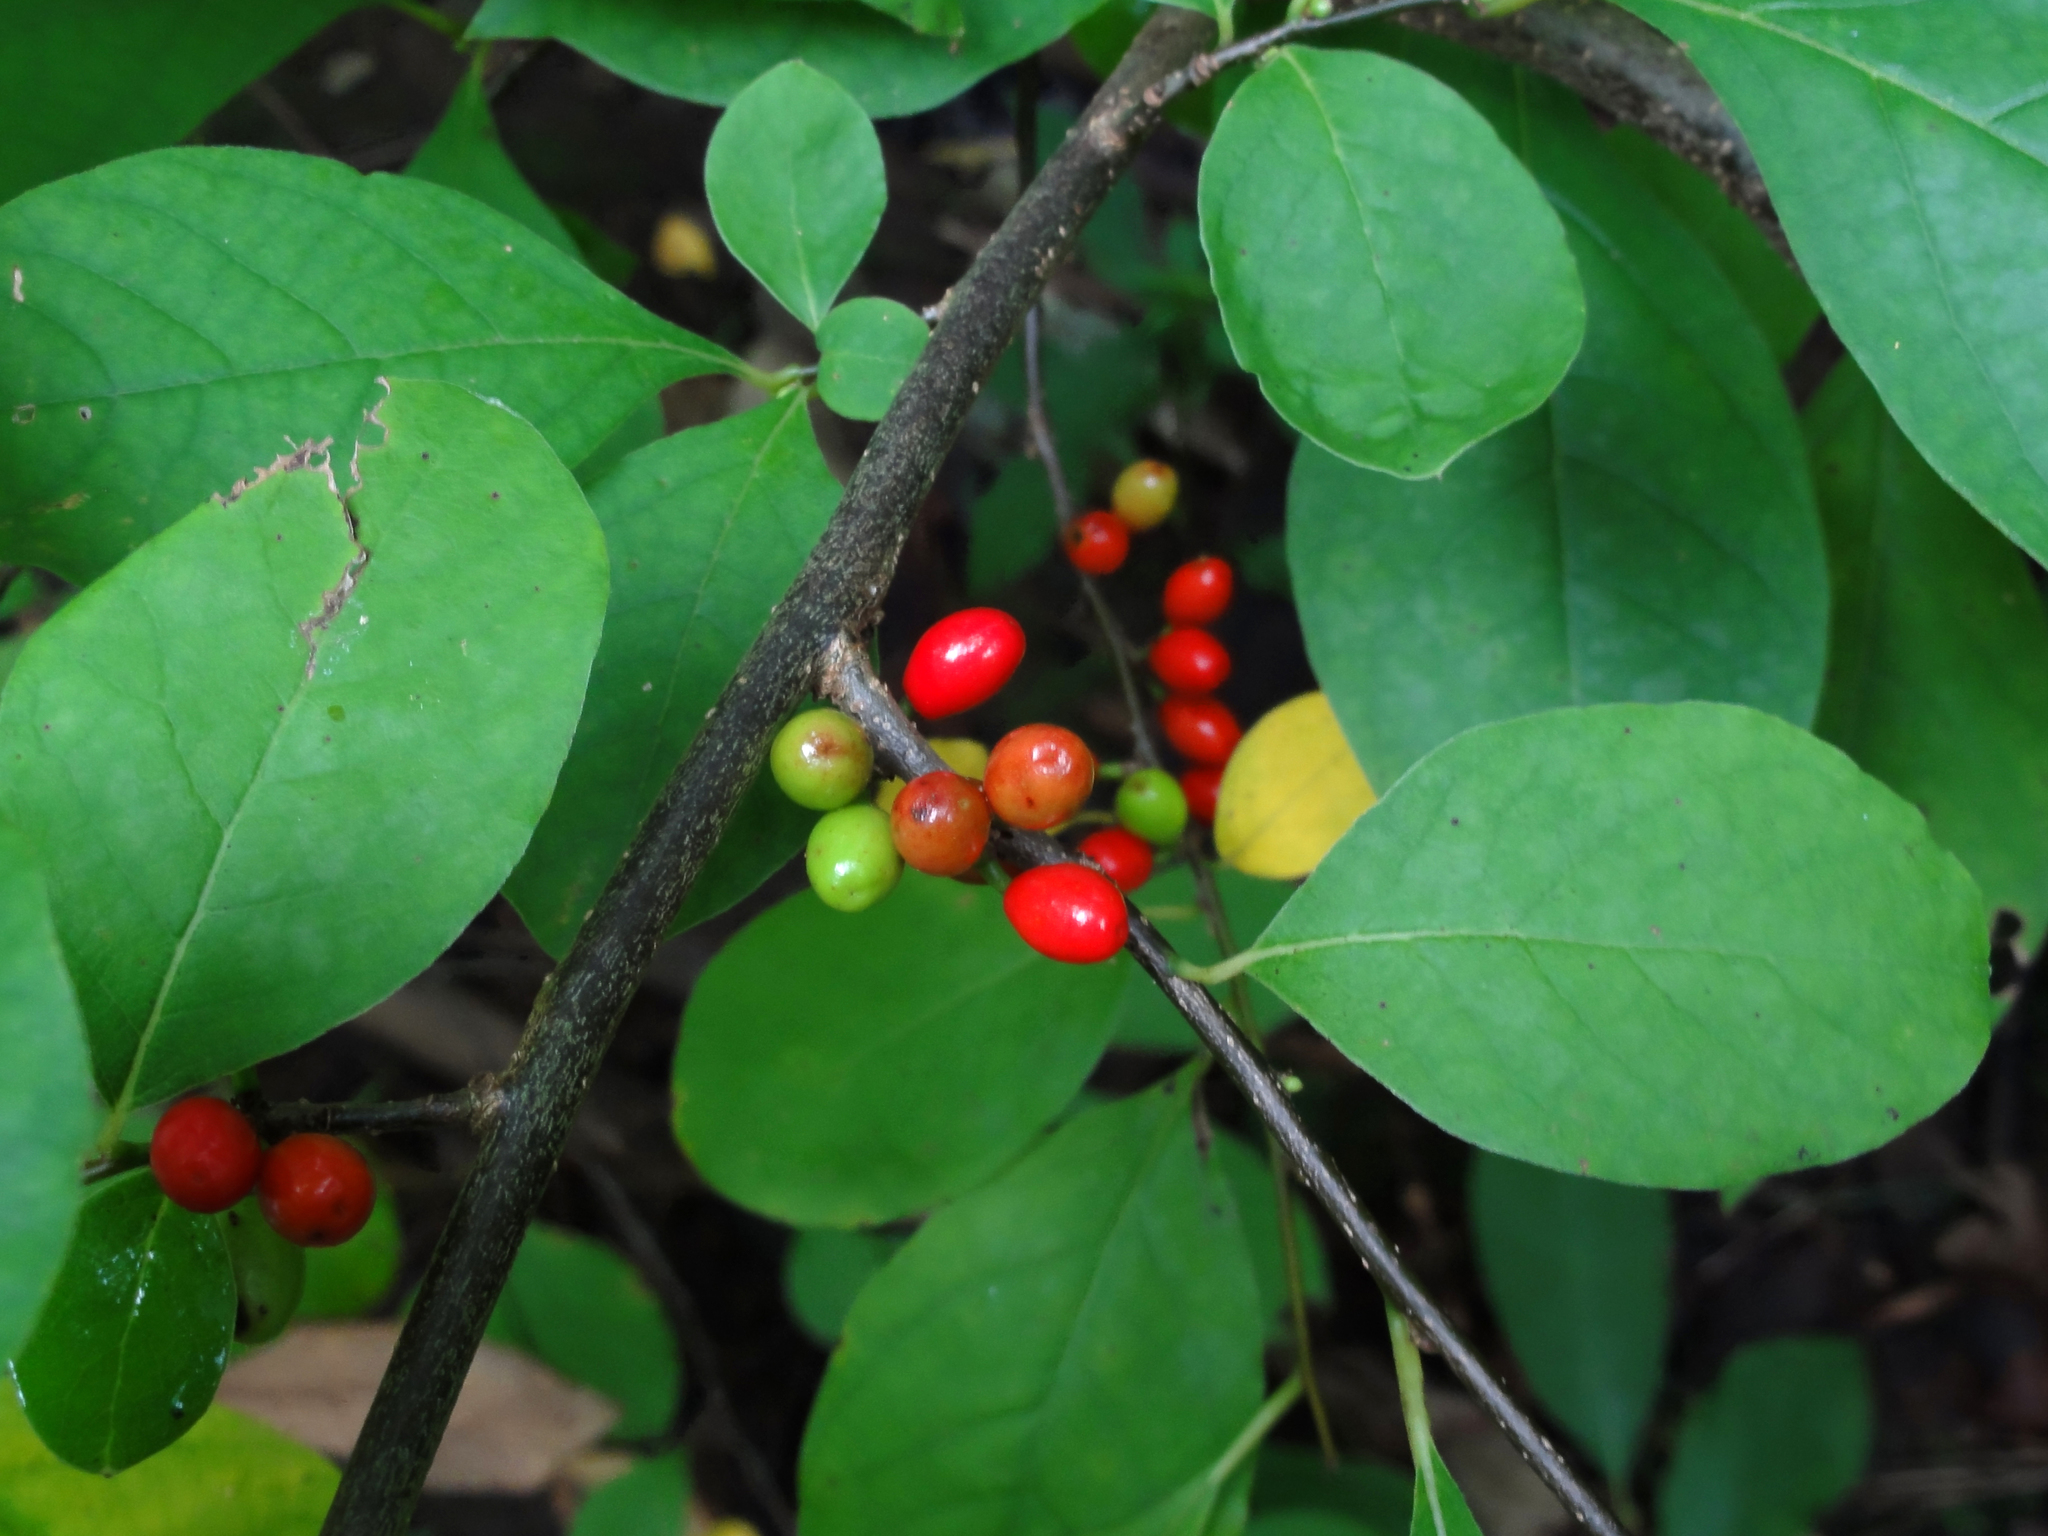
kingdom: Plantae
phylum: Tracheophyta
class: Magnoliopsida
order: Laurales
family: Lauraceae
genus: Lindera
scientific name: Lindera benzoin
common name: Spicebush
